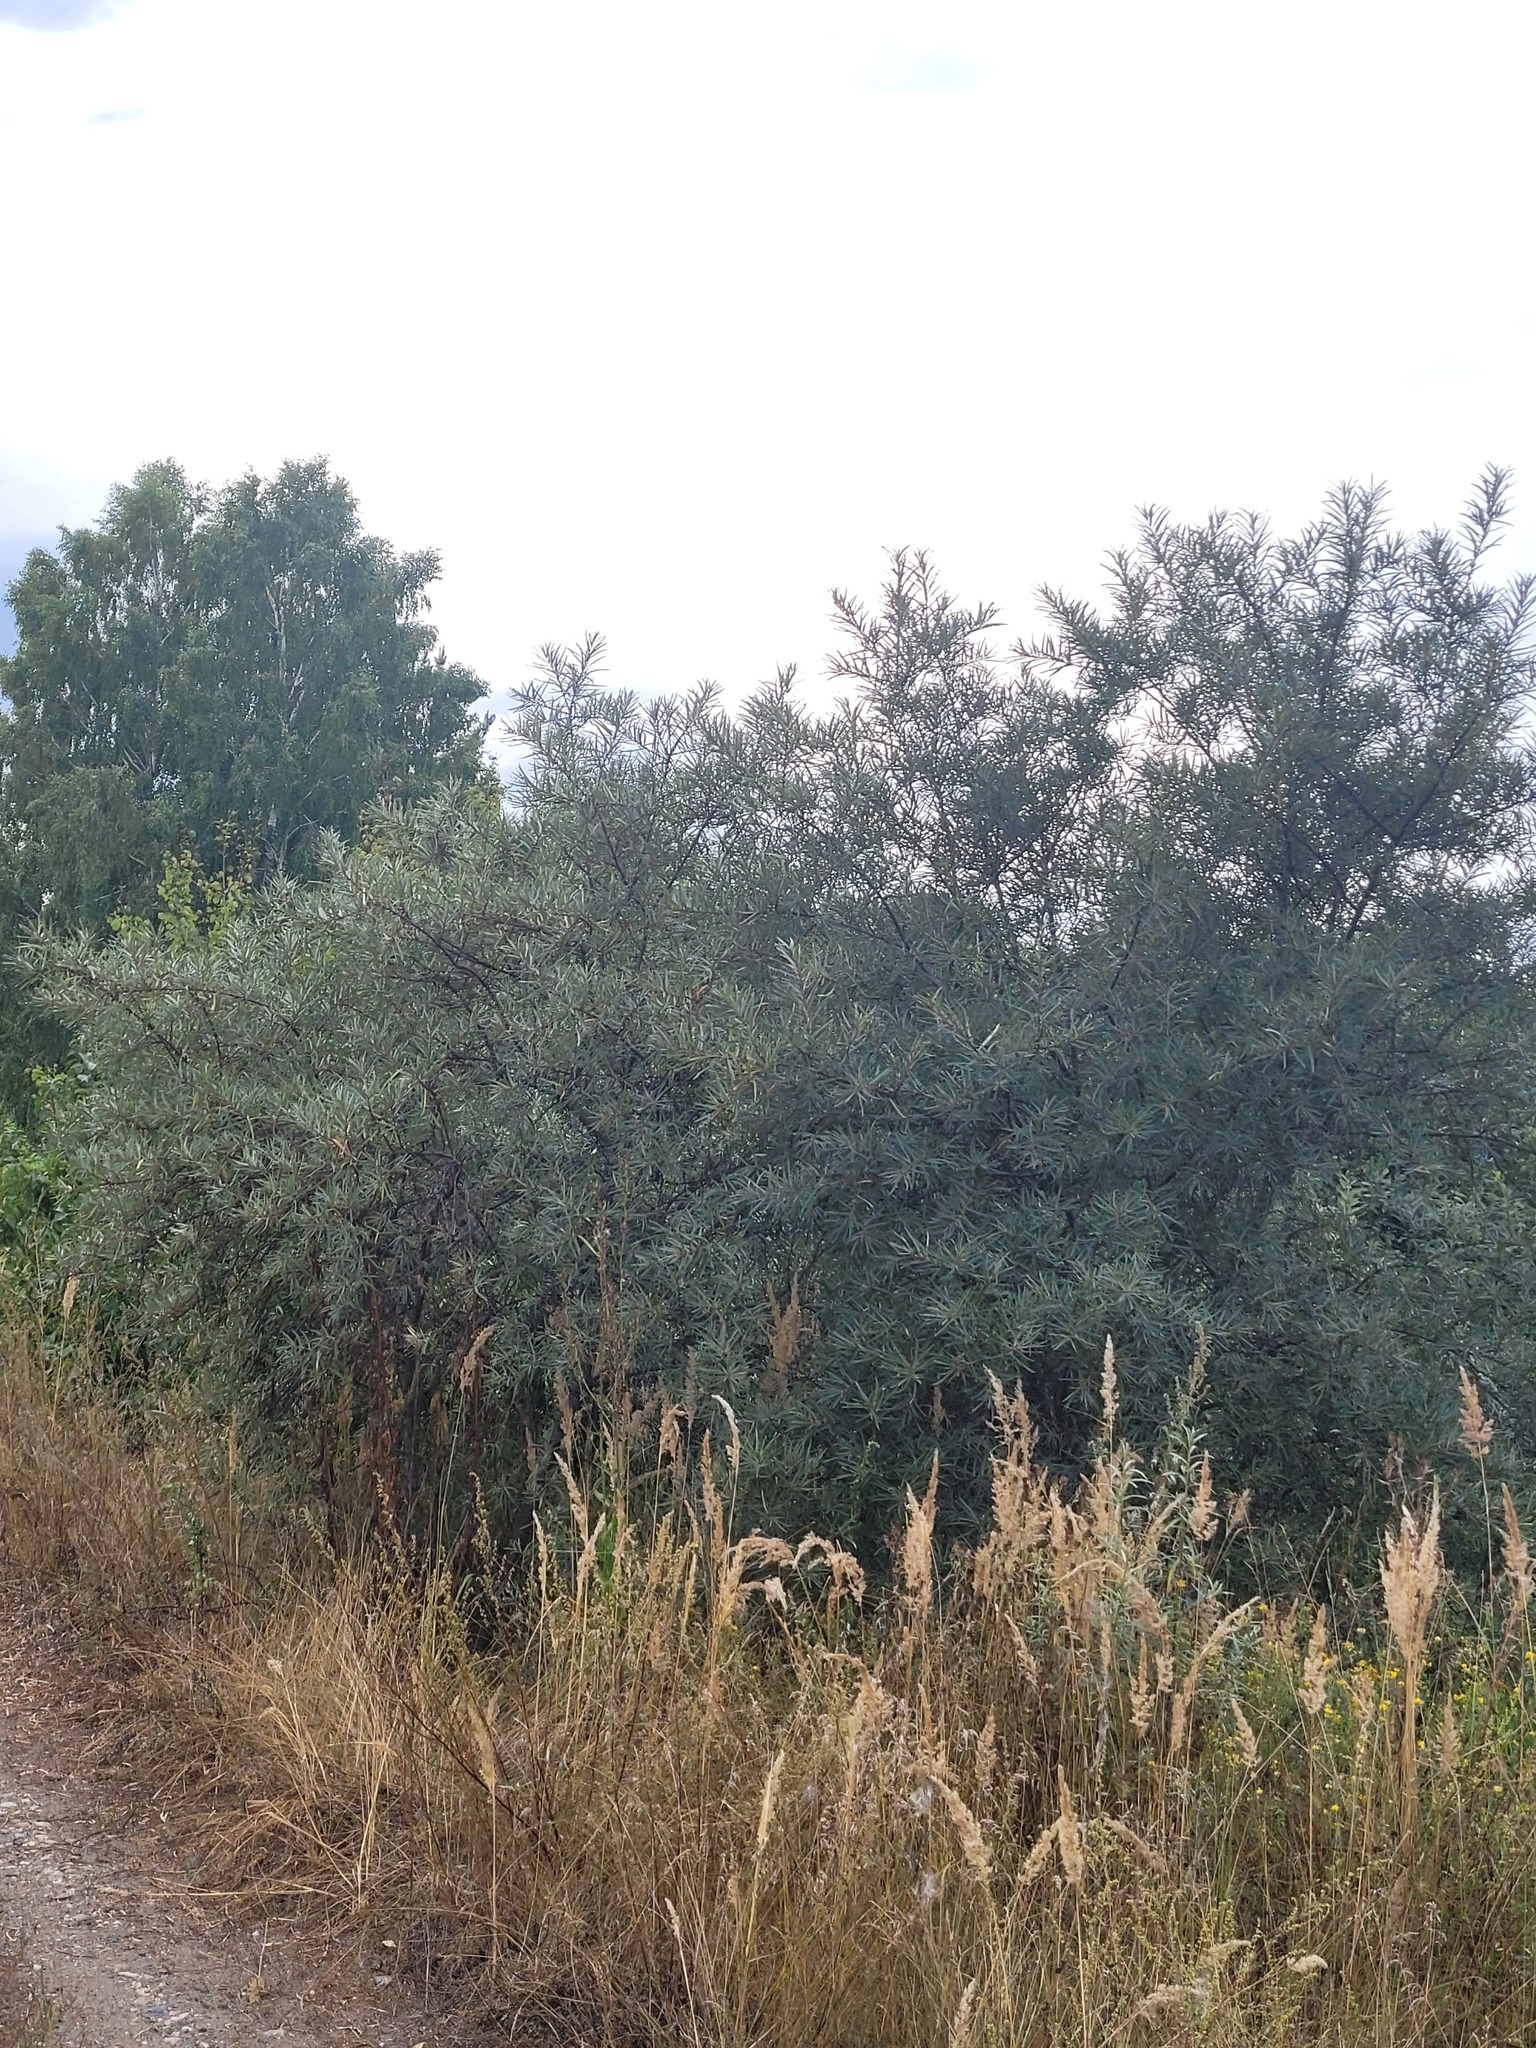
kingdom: Plantae
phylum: Tracheophyta
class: Magnoliopsida
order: Rosales
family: Elaeagnaceae
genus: Hippophae
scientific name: Hippophae rhamnoides
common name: Sea-buckthorn
